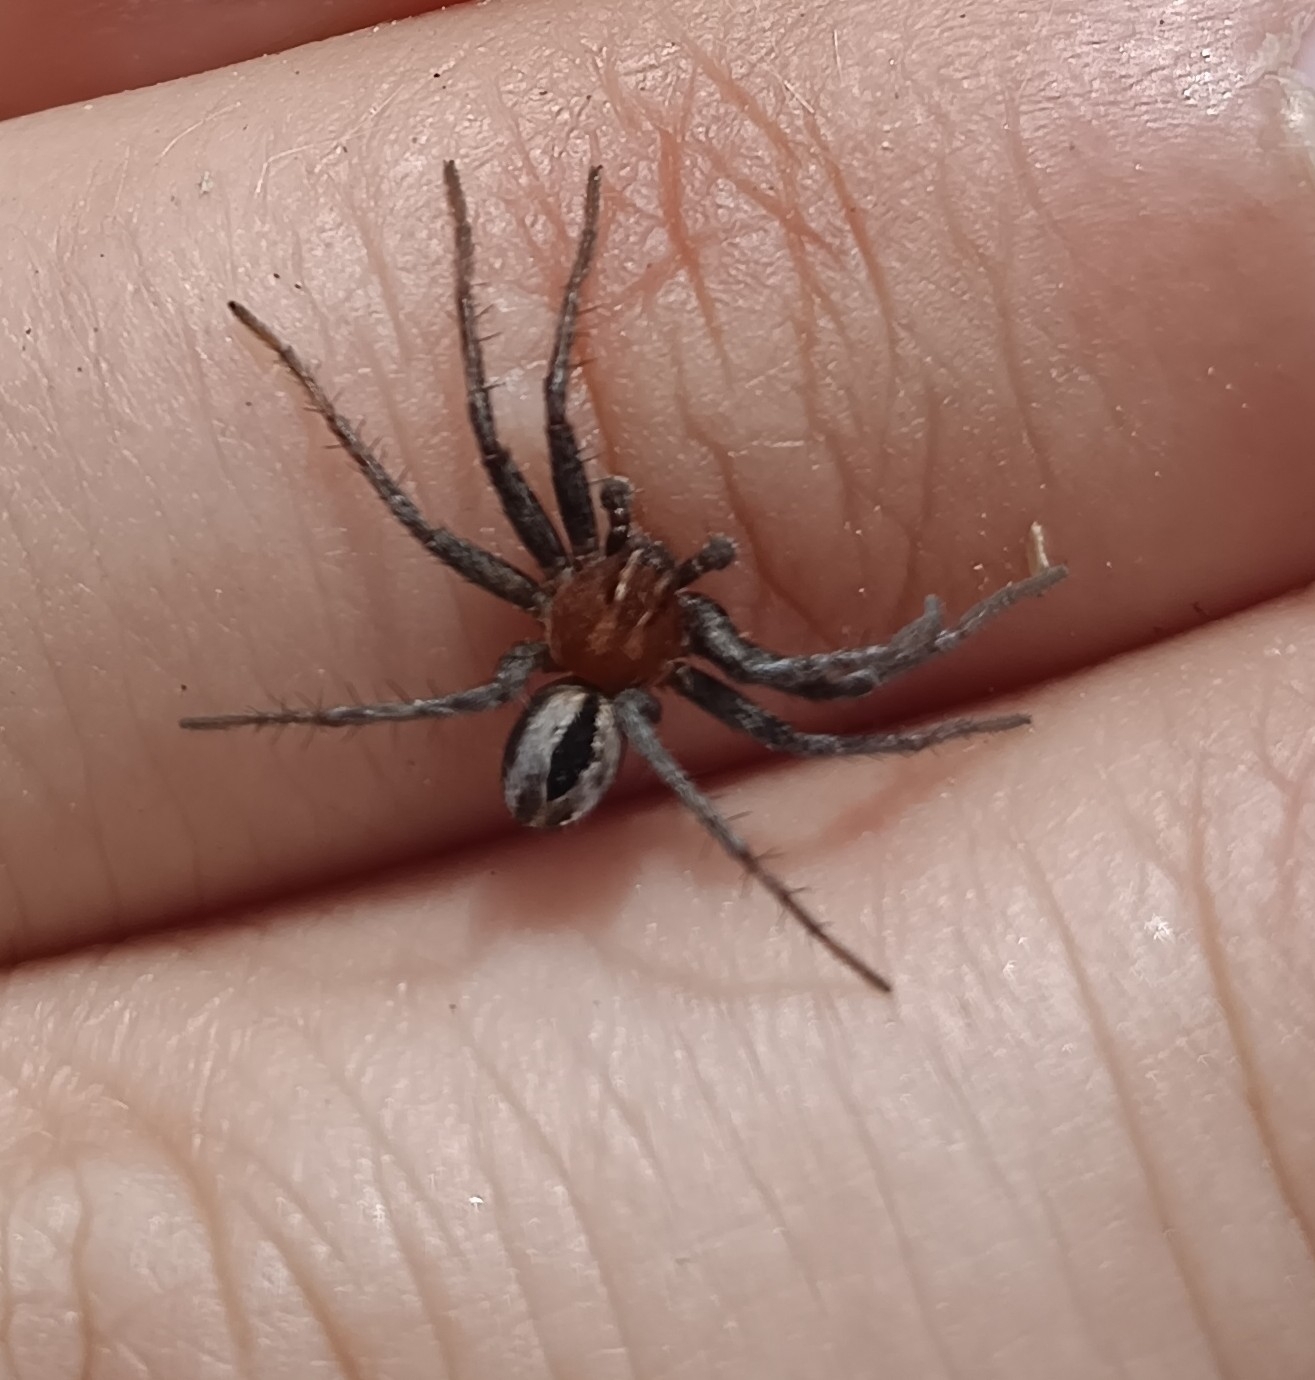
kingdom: Animalia
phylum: Arthropoda
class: Arachnida
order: Araneae
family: Philodromidae
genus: Thanatus
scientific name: Thanatus arenarius
